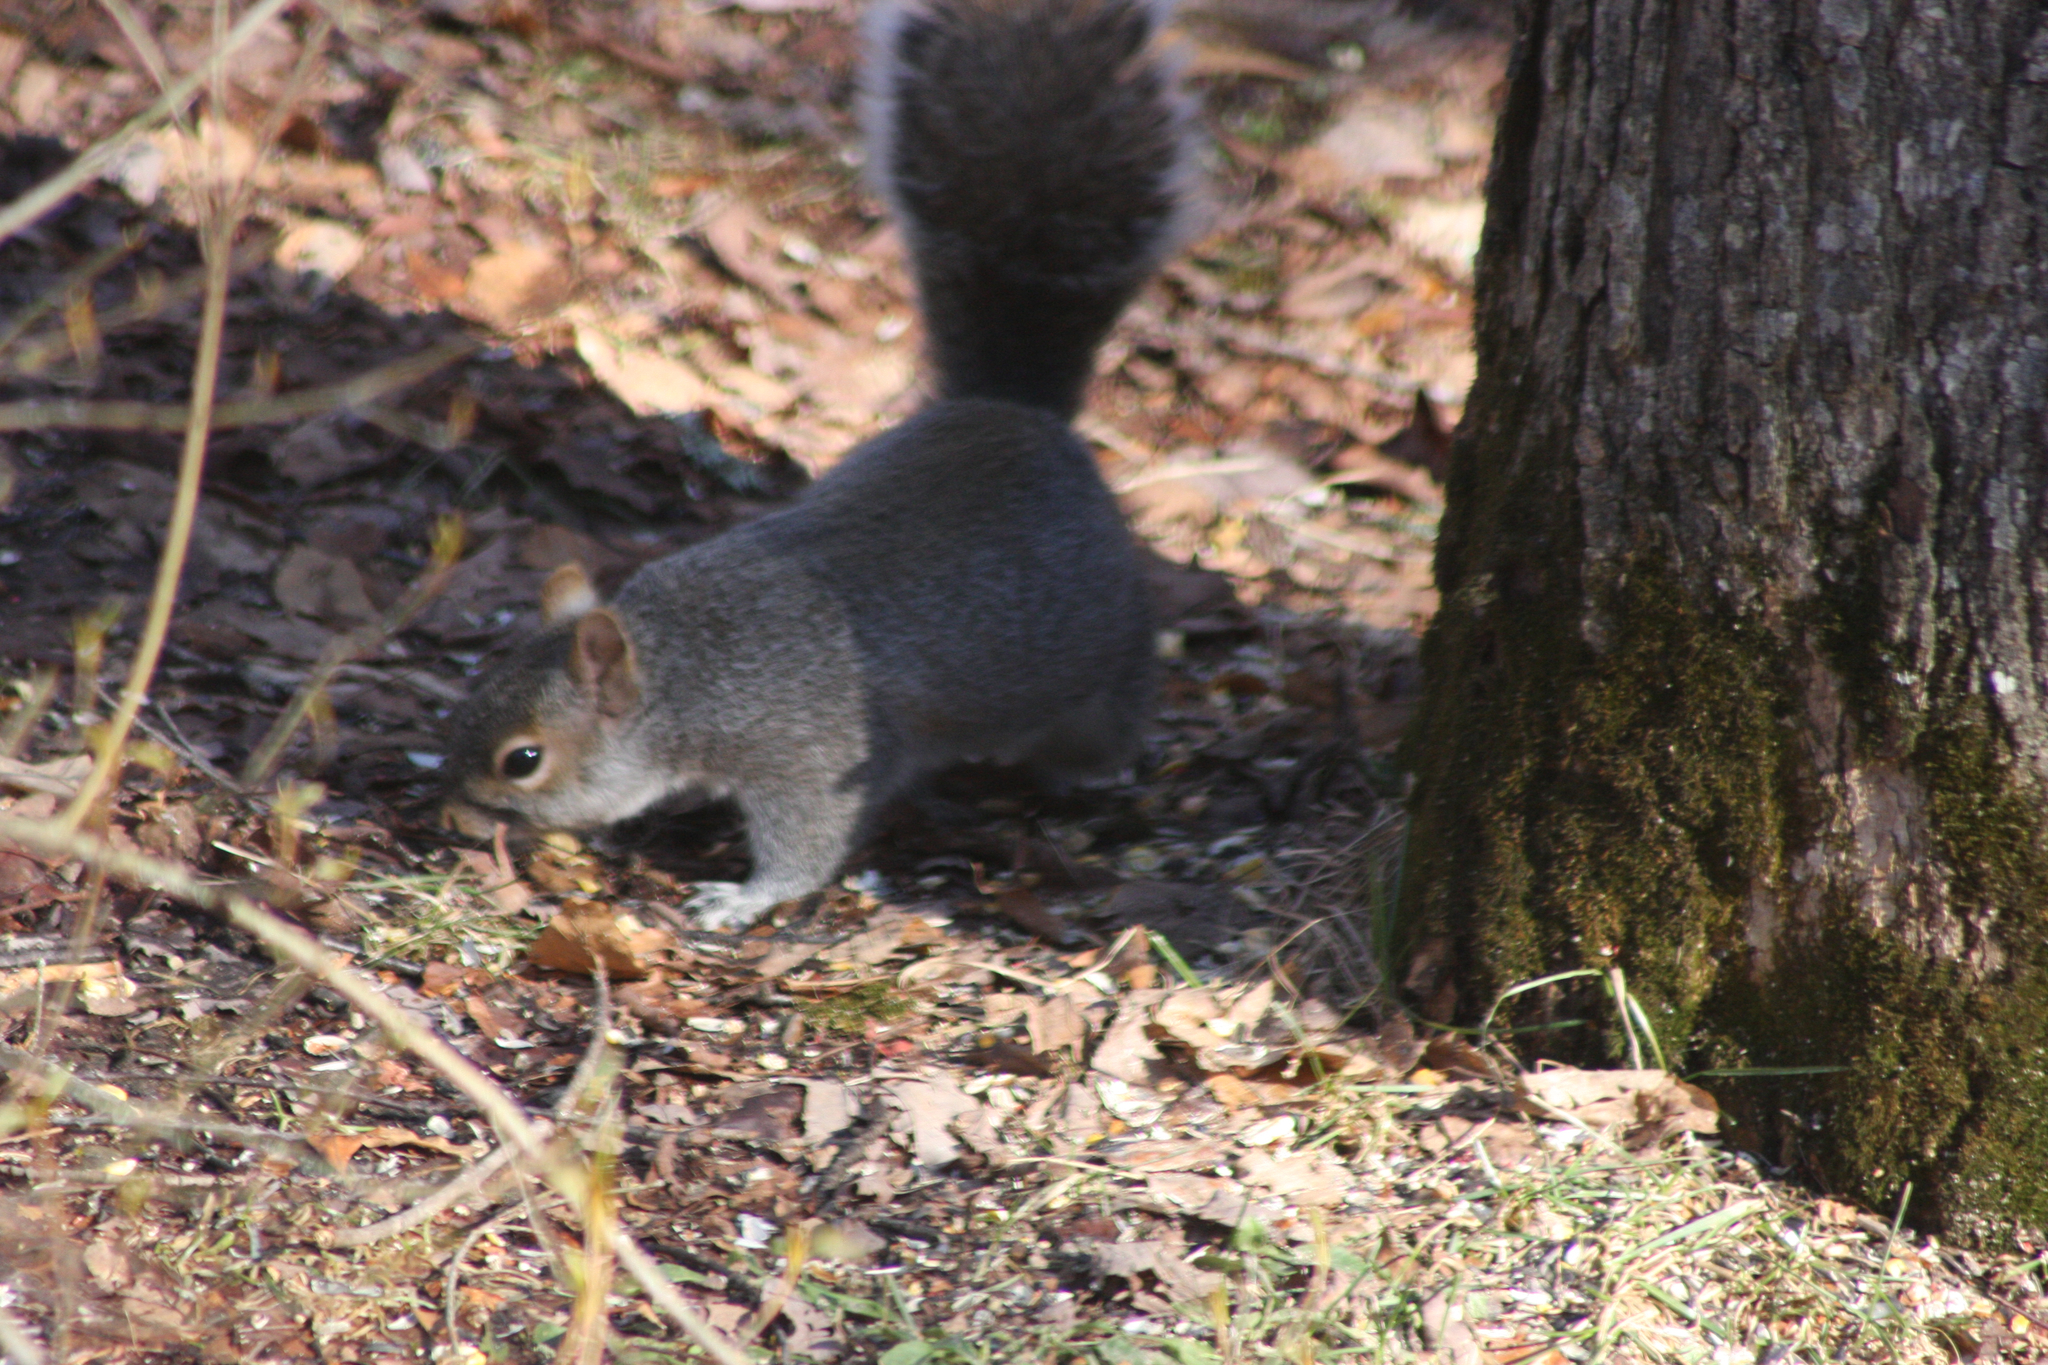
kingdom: Animalia
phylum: Chordata
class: Mammalia
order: Rodentia
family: Sciuridae
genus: Sciurus
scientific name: Sciurus carolinensis
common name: Eastern gray squirrel
